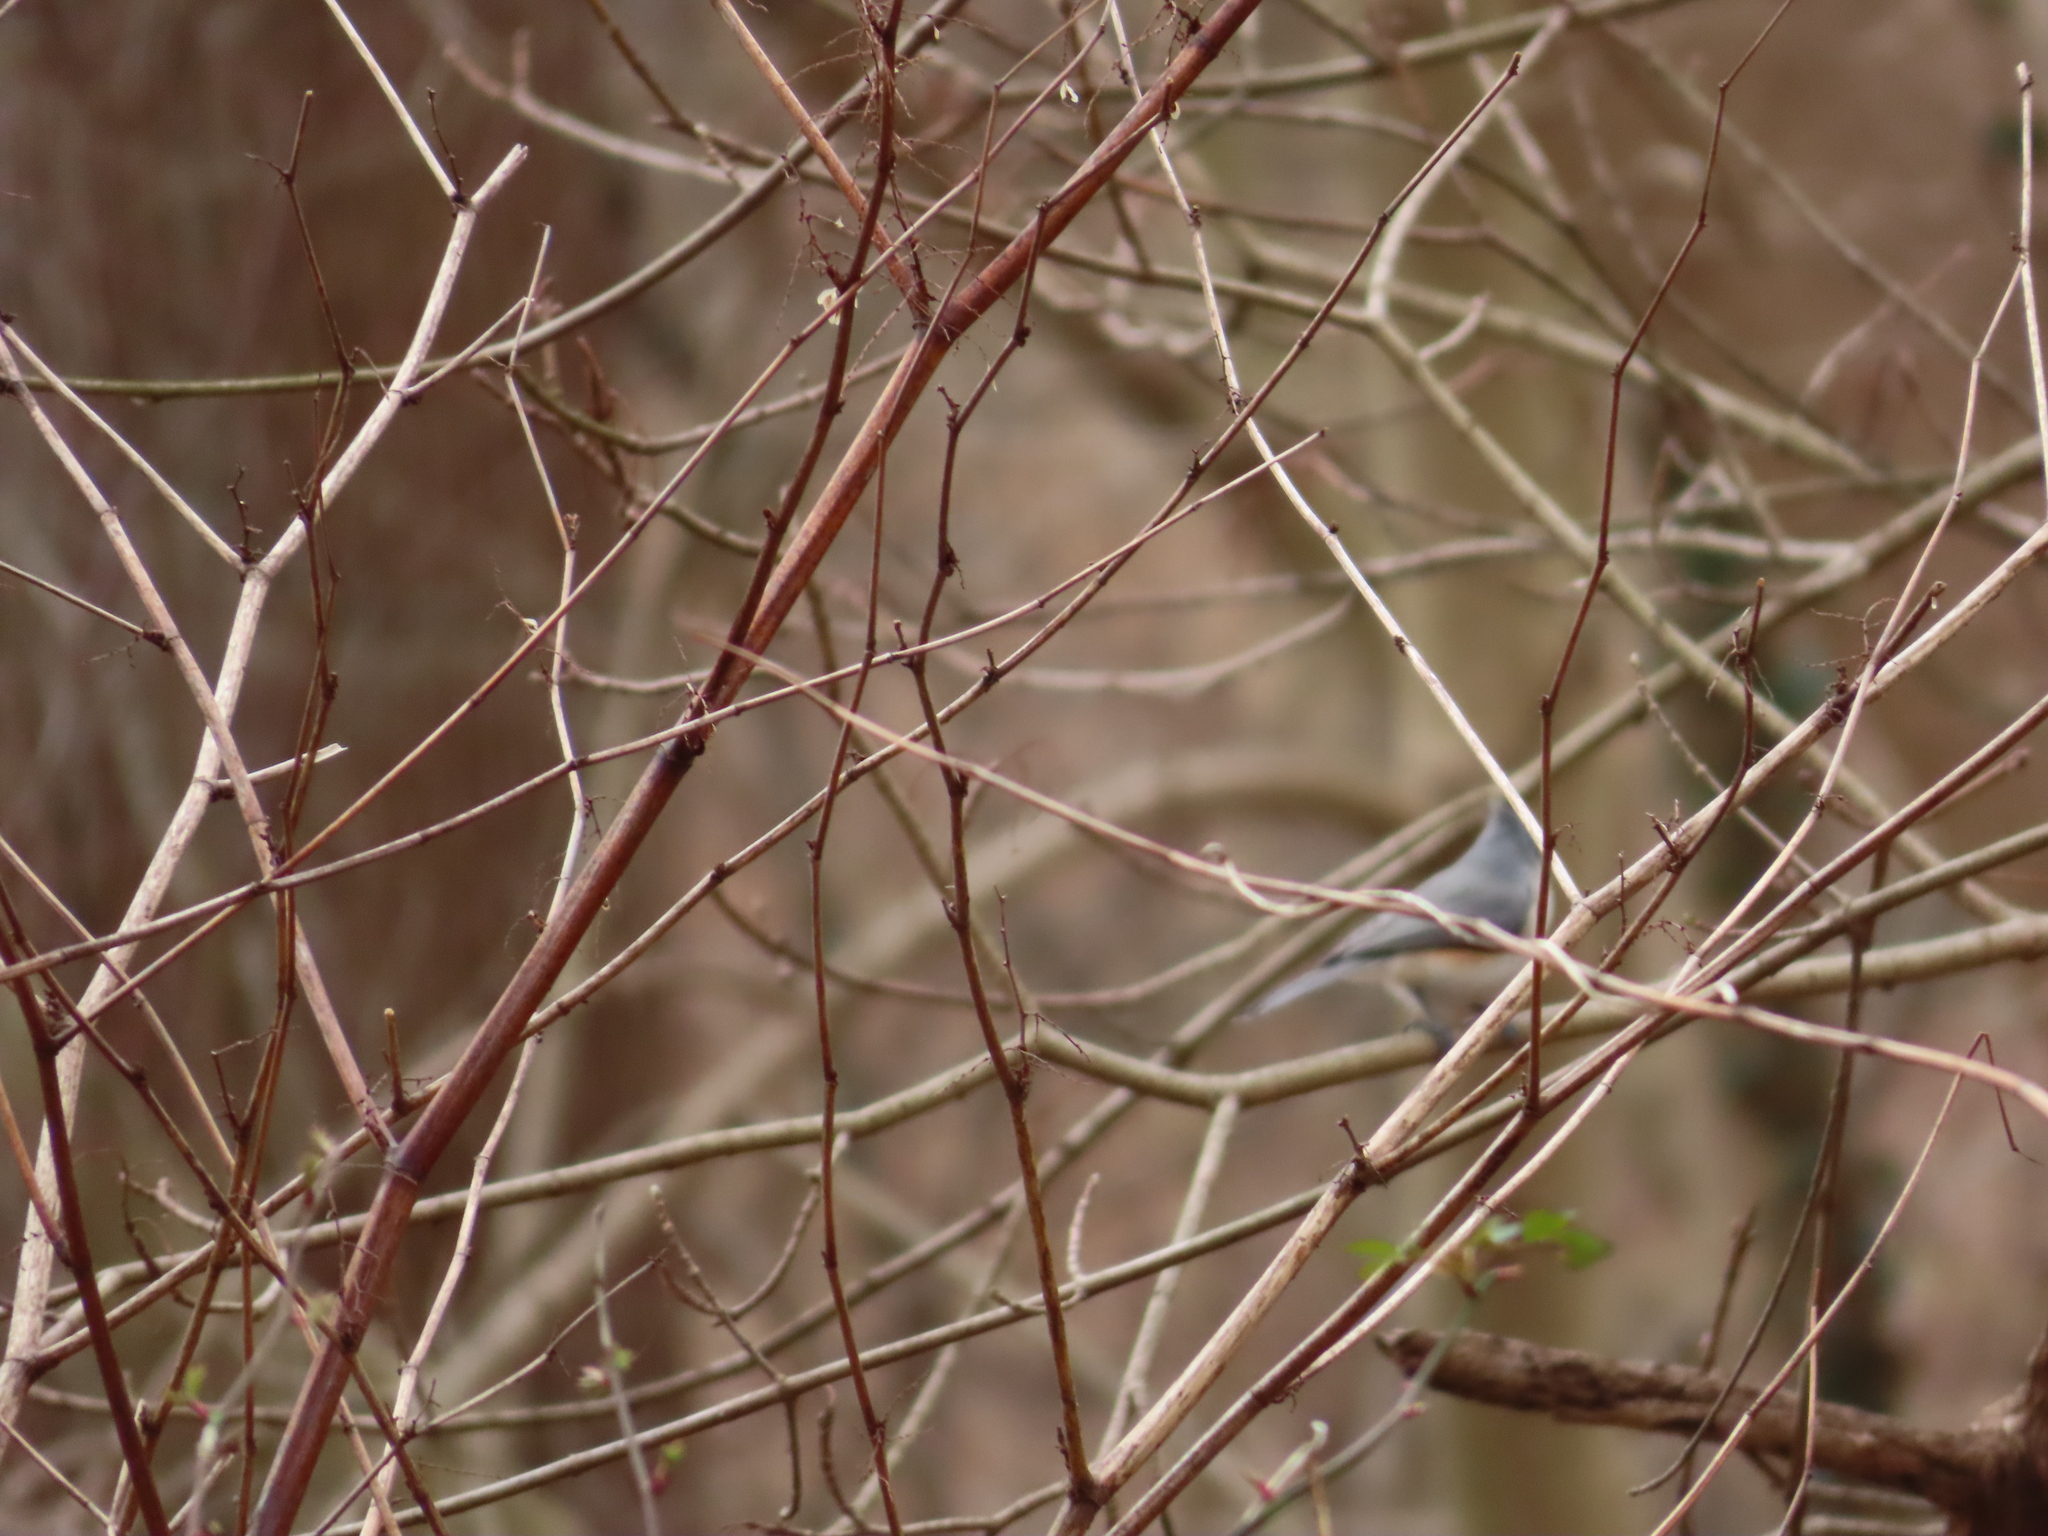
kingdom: Animalia
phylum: Chordata
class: Aves
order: Passeriformes
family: Paridae
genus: Baeolophus
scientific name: Baeolophus bicolor
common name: Tufted titmouse
